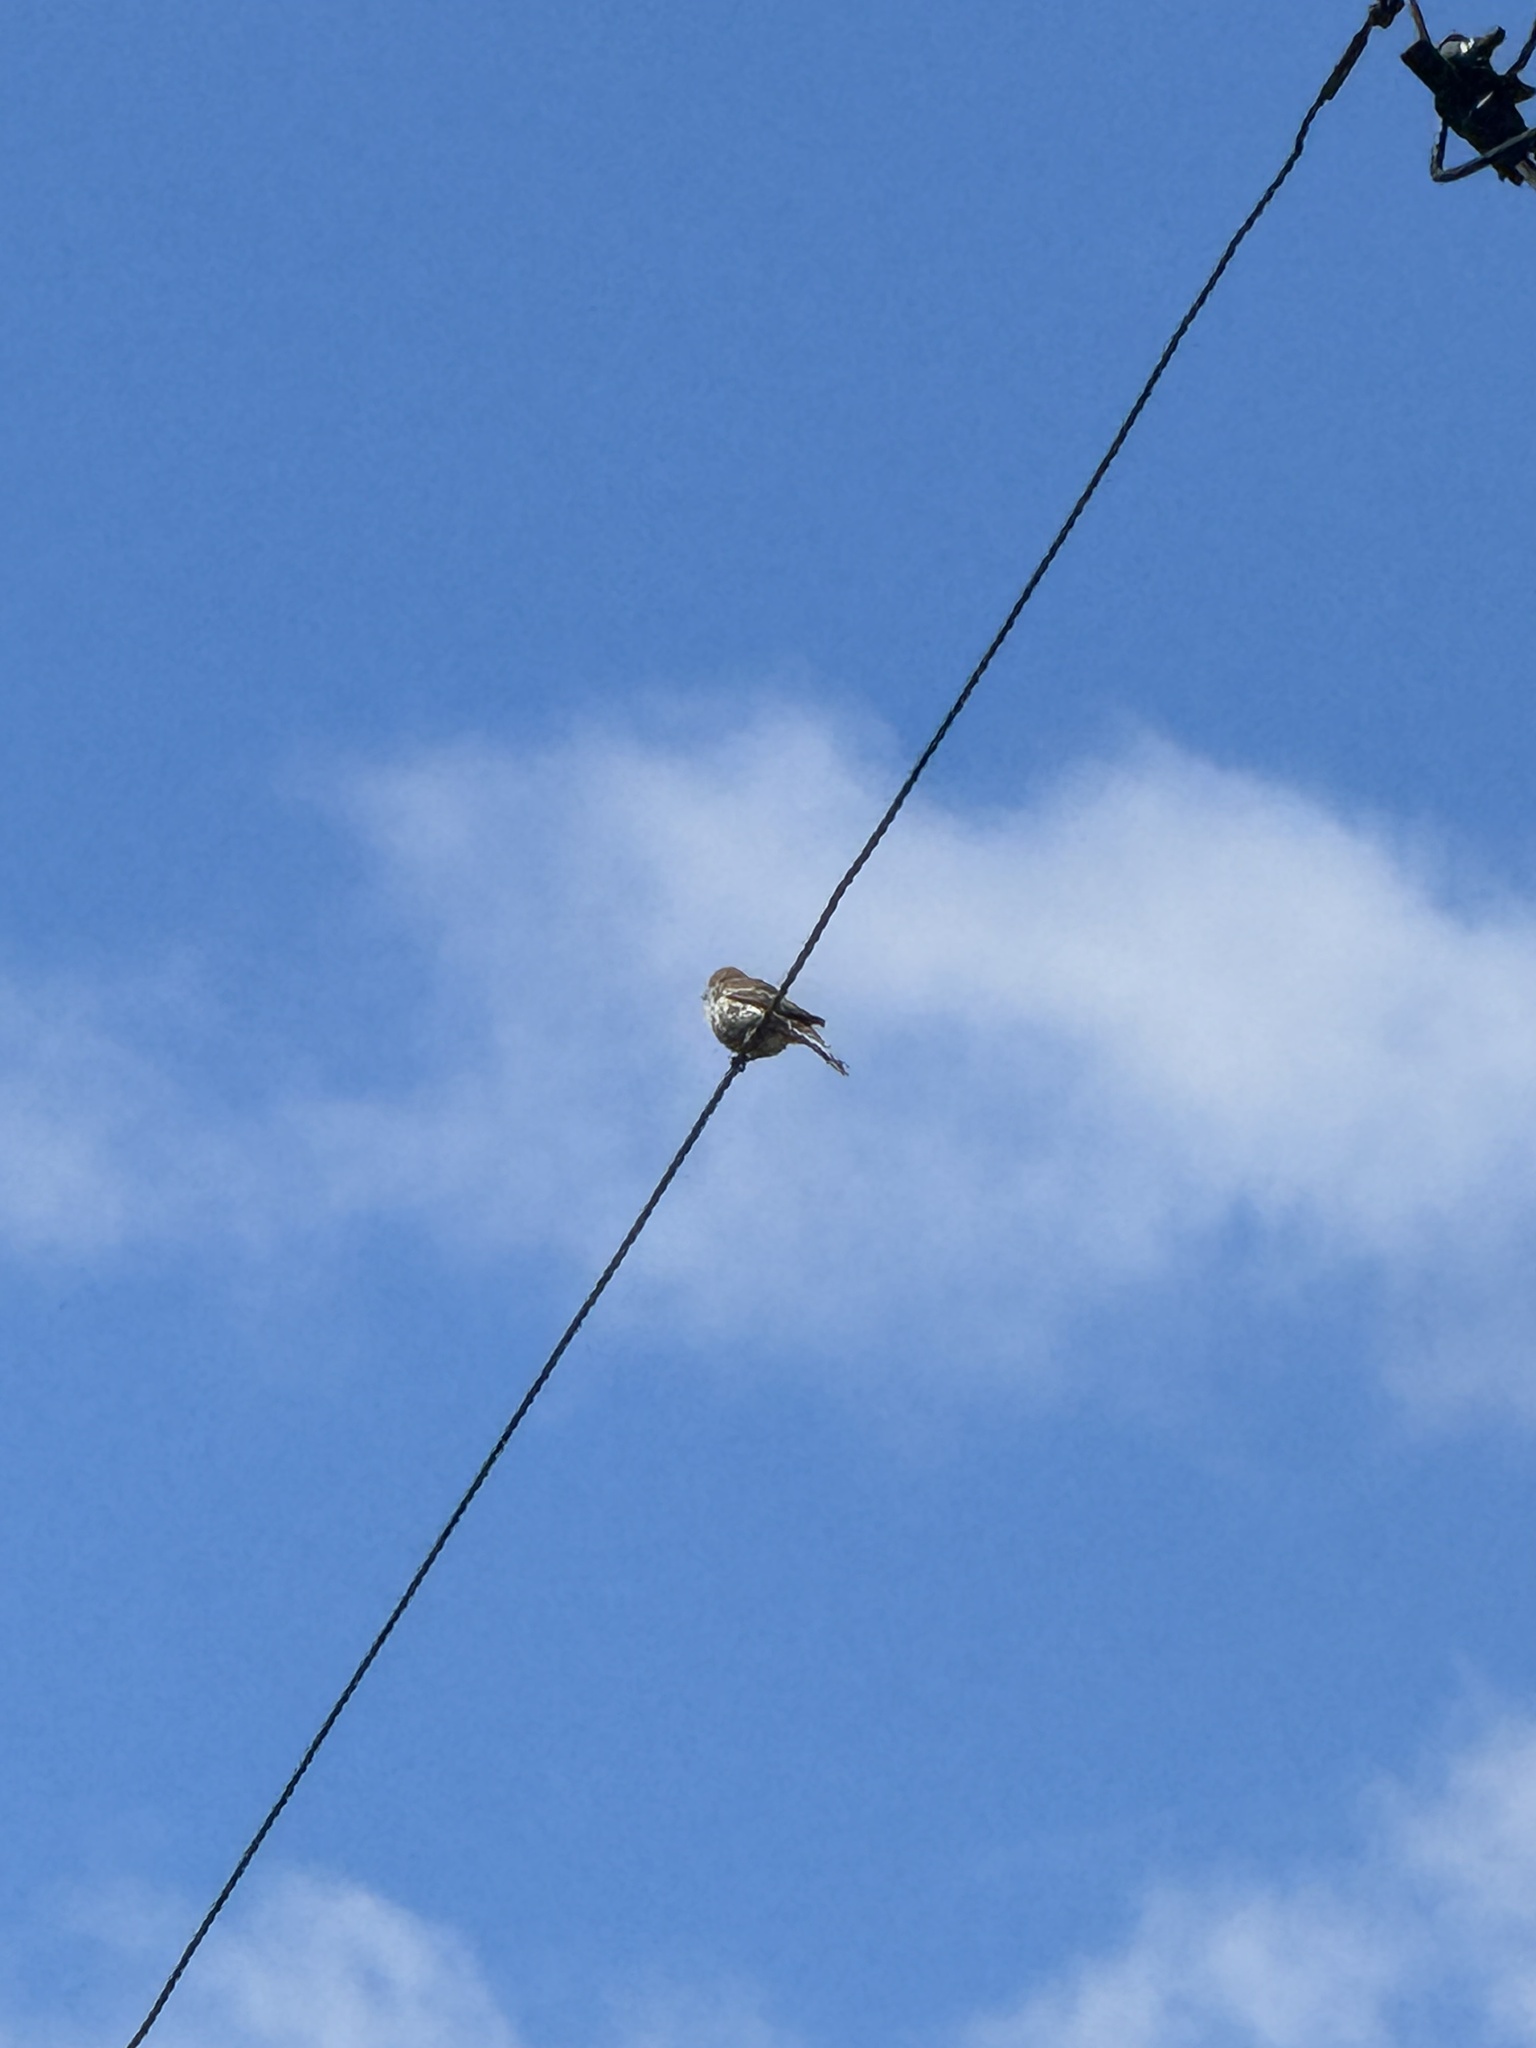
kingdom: Animalia
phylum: Chordata
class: Aves
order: Passeriformes
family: Fringillidae
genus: Haemorhous
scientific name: Haemorhous mexicanus
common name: House finch
